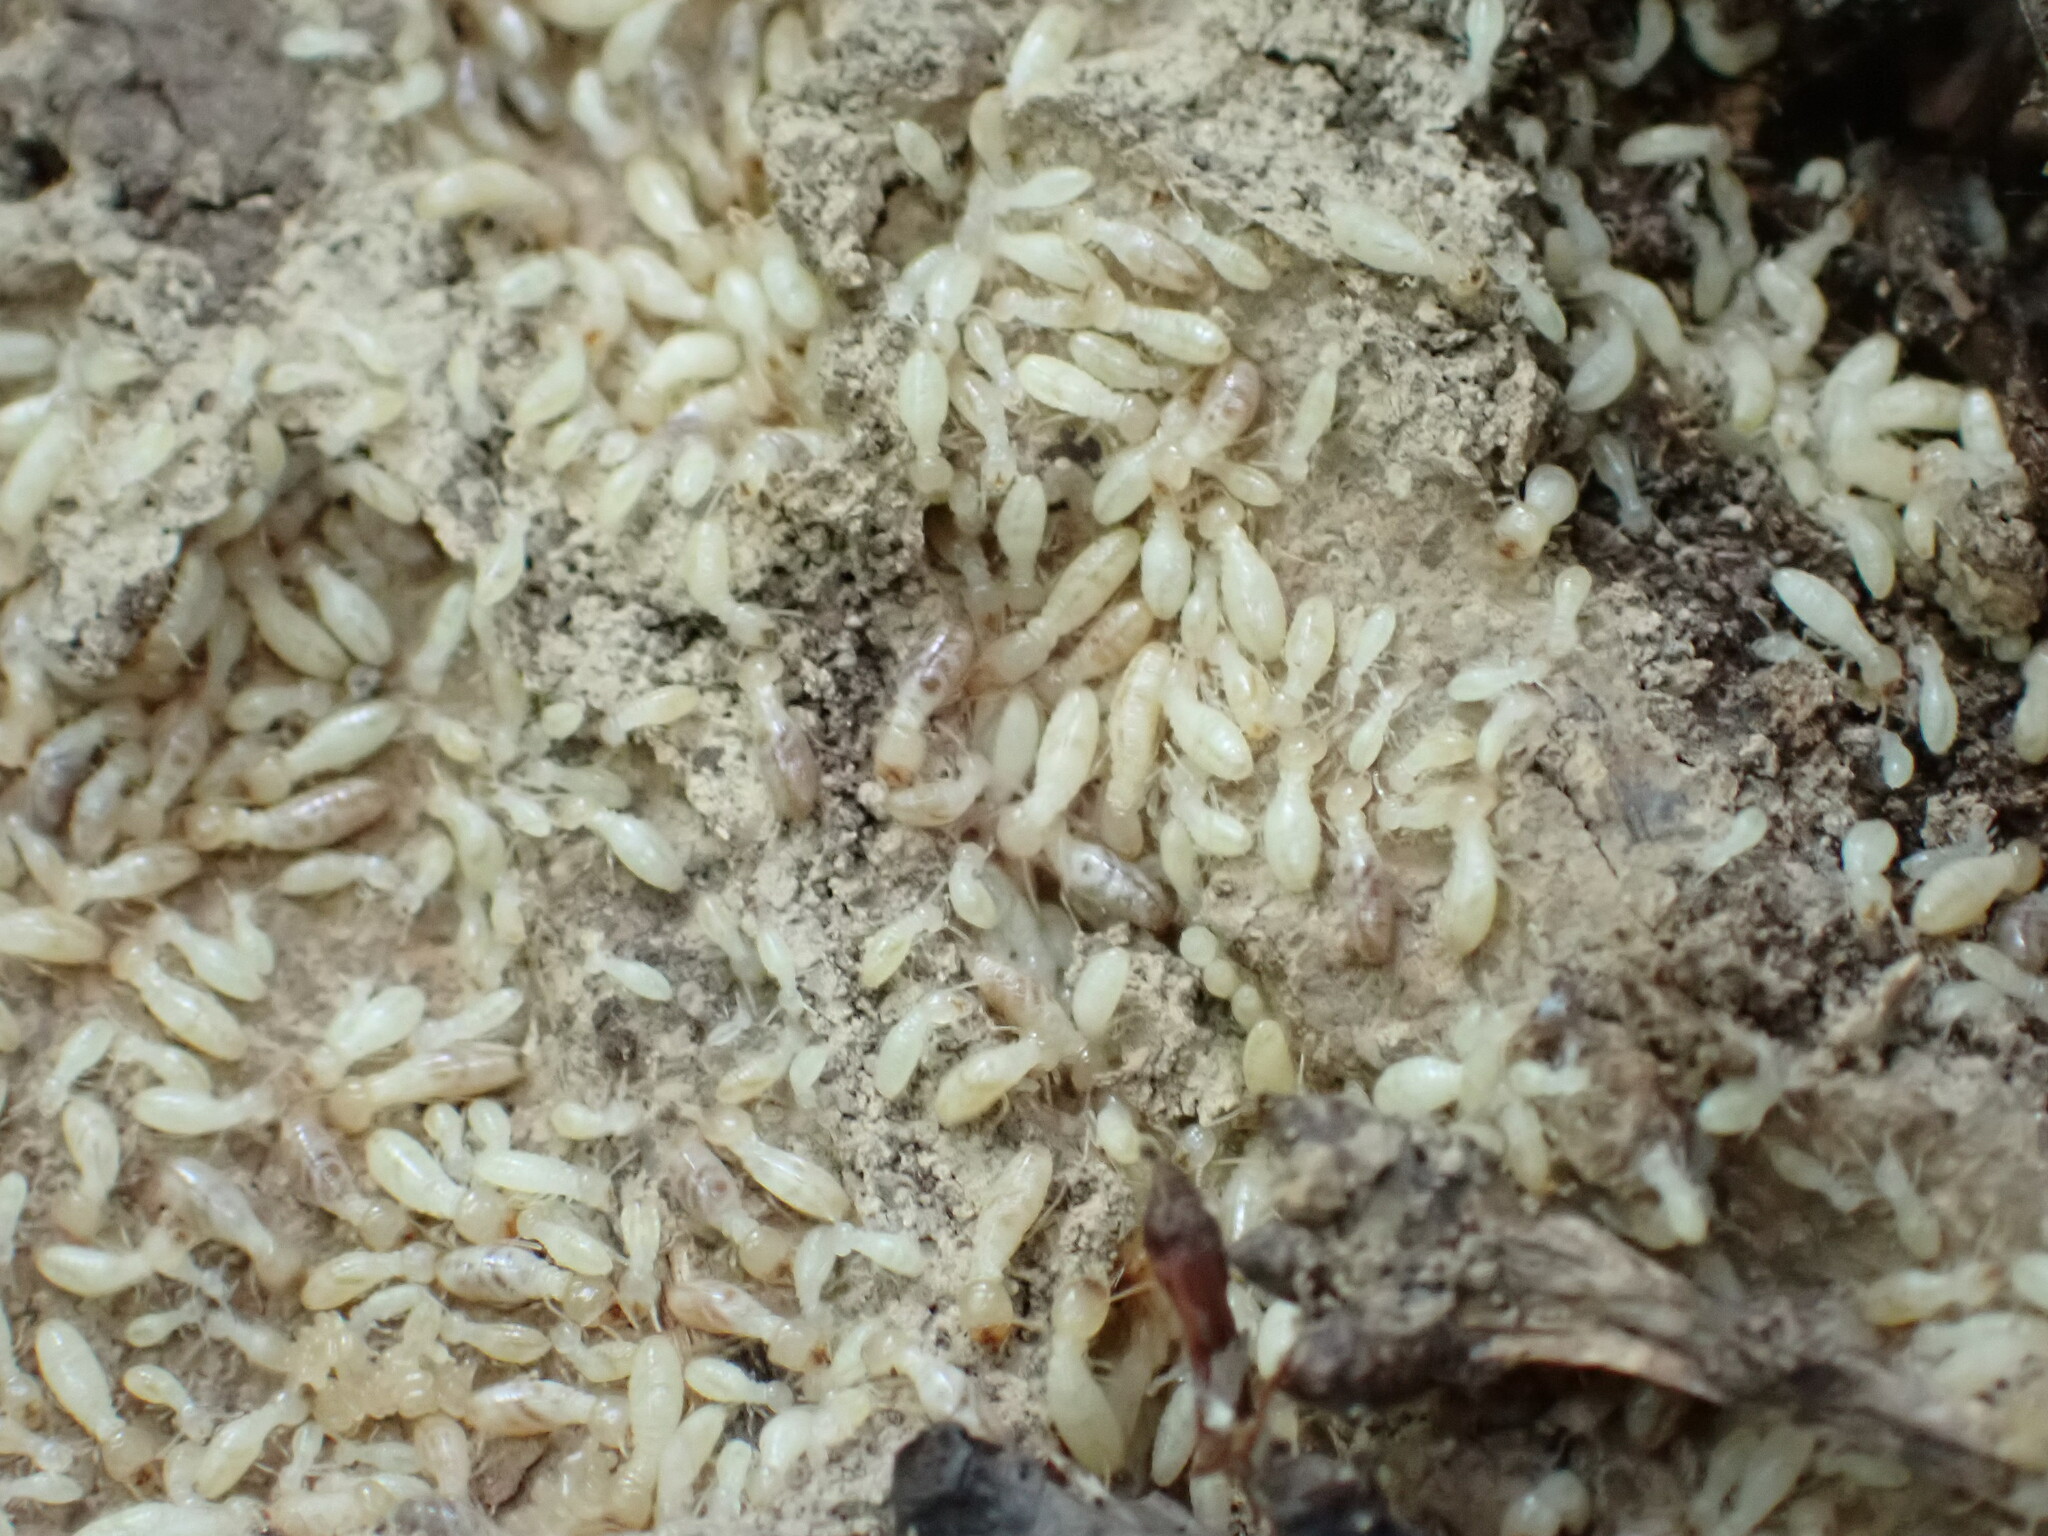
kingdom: Animalia
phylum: Arthropoda
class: Insecta
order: Blattodea
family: Rhinotermitidae
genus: Reticulitermes
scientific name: Reticulitermes flavipes
